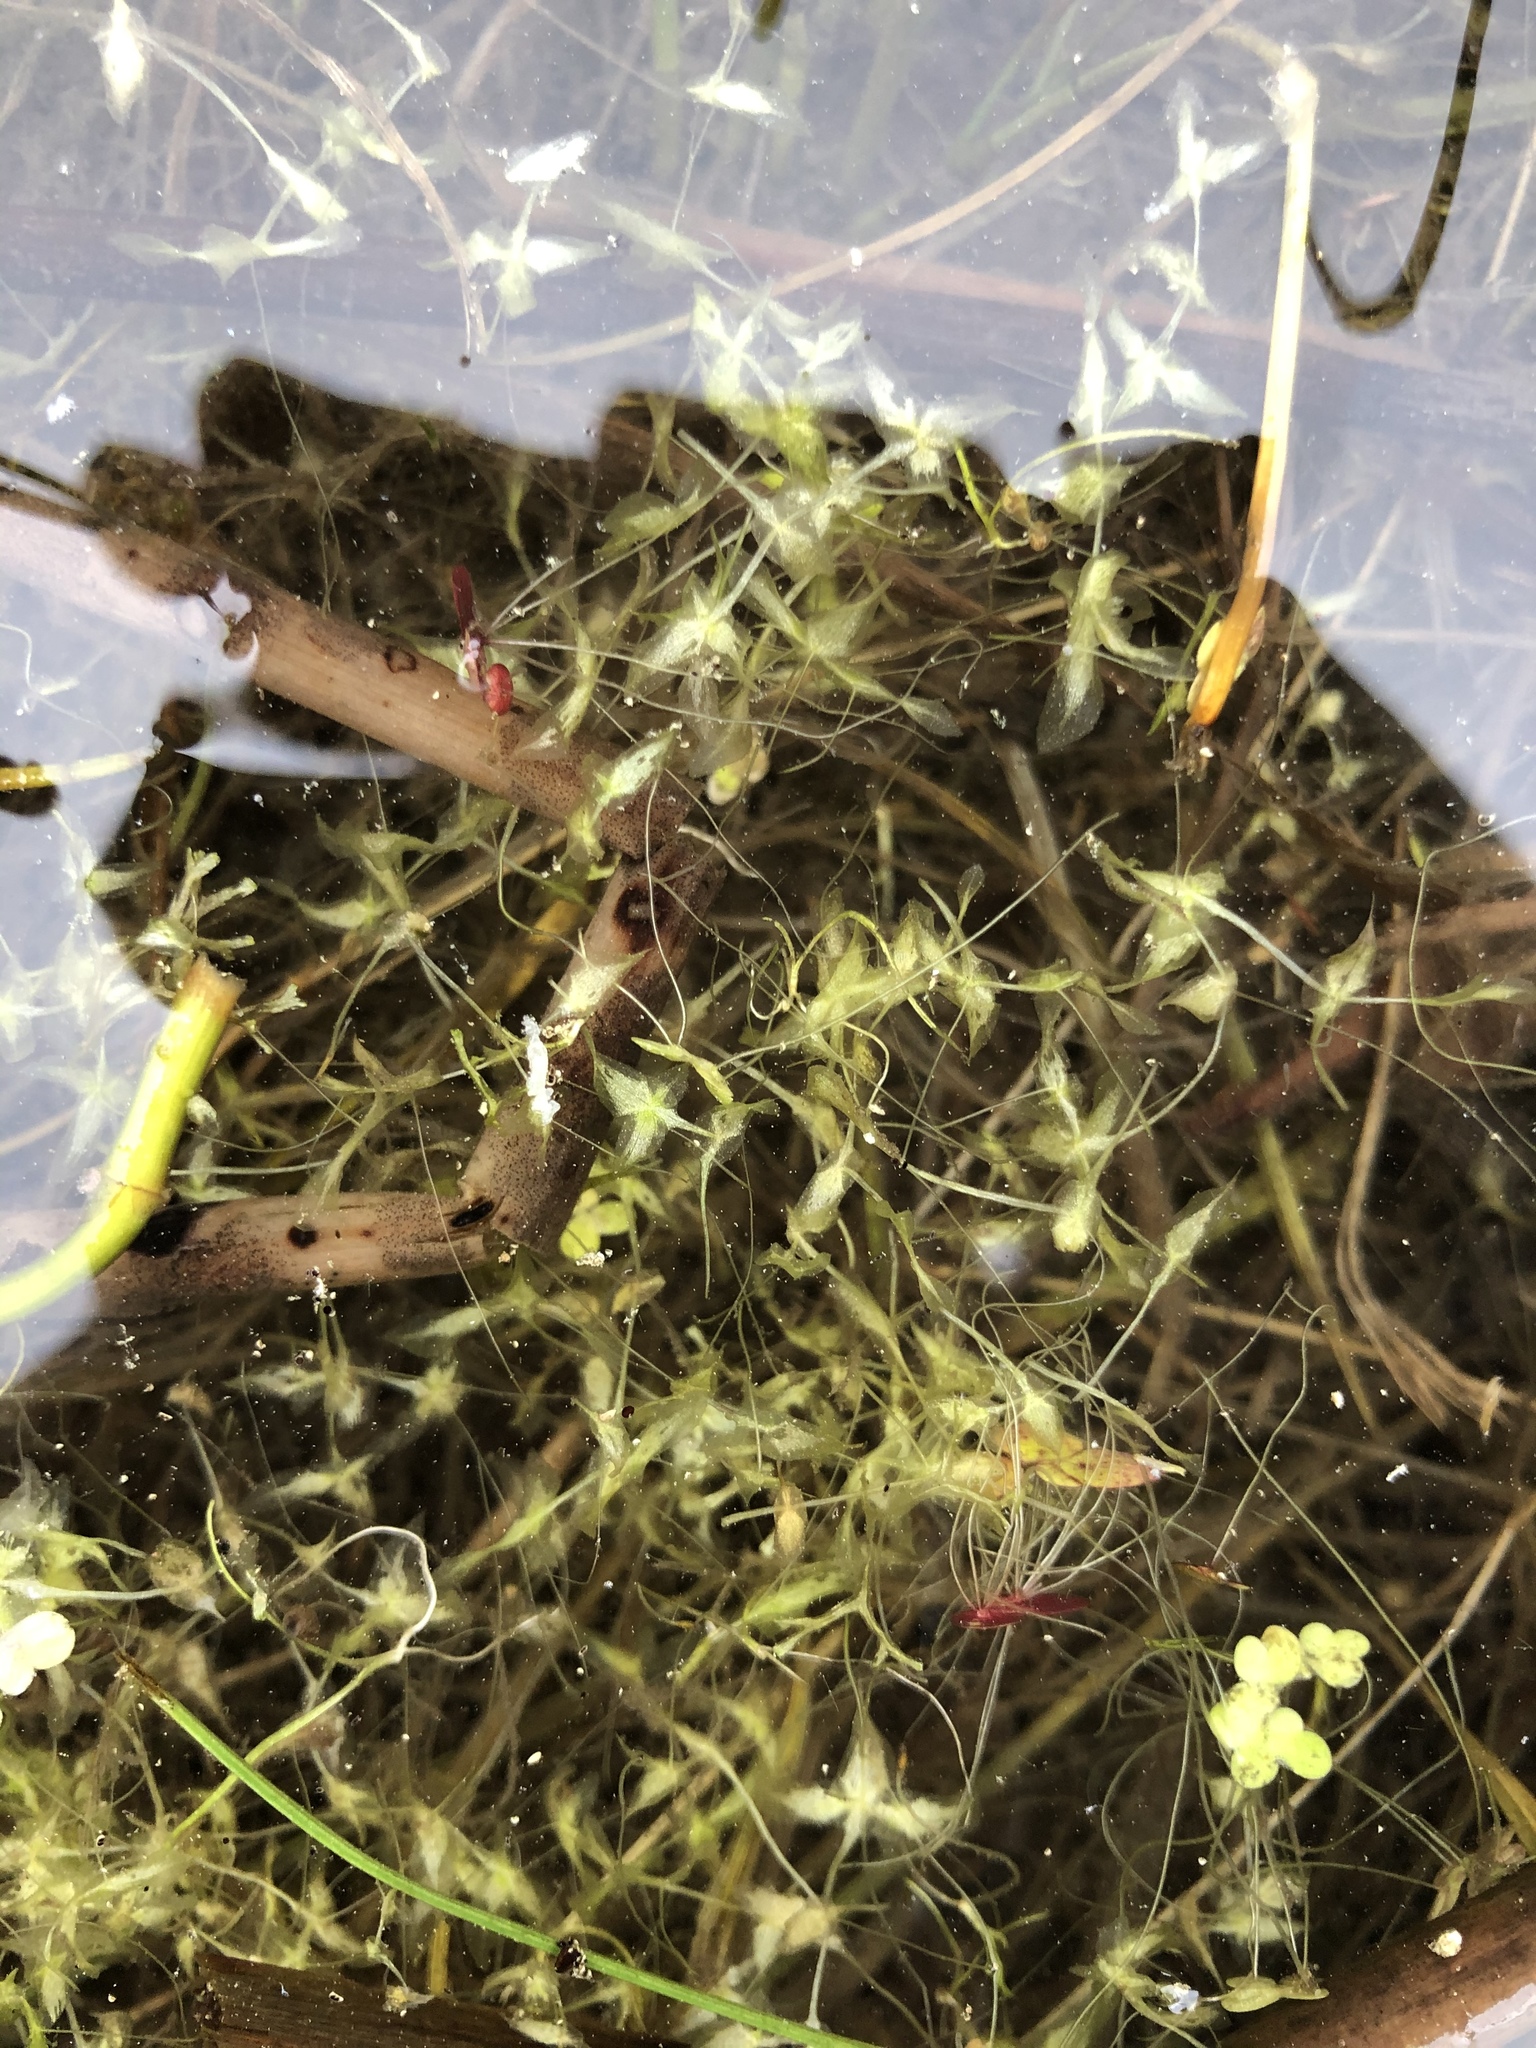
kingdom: Plantae
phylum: Tracheophyta
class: Liliopsida
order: Alismatales
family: Araceae
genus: Lemna
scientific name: Lemna trisulca
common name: Ivy-leaved duckweed
